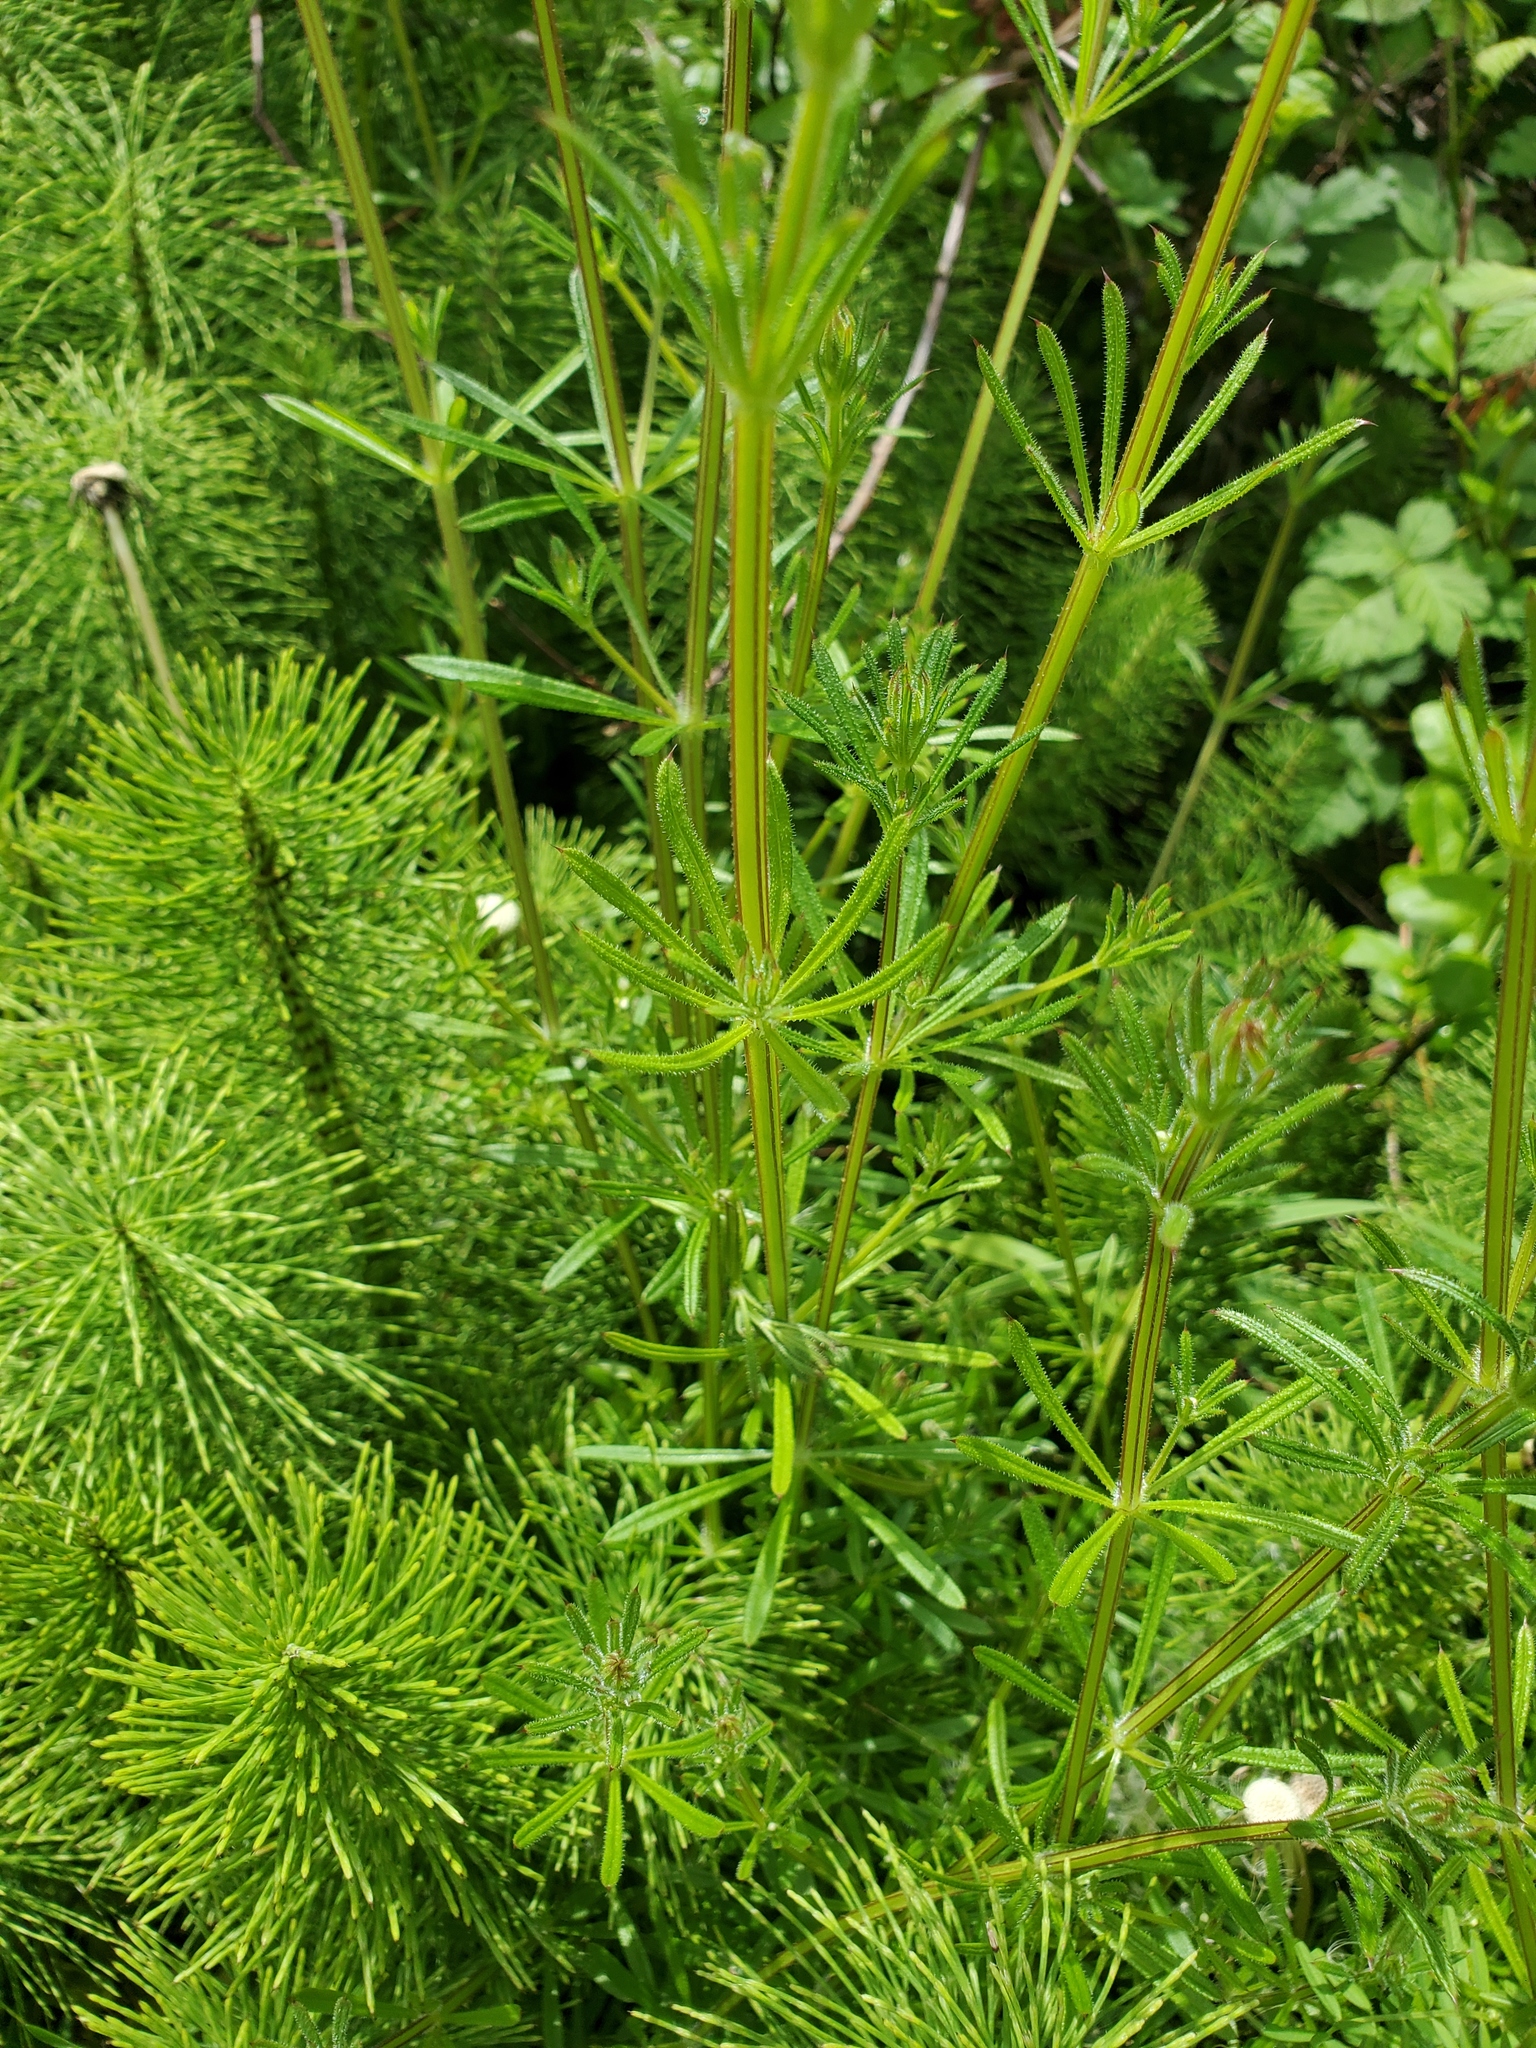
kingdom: Plantae
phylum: Tracheophyta
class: Magnoliopsida
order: Gentianales
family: Rubiaceae
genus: Galium
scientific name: Galium aparine
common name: Cleavers
